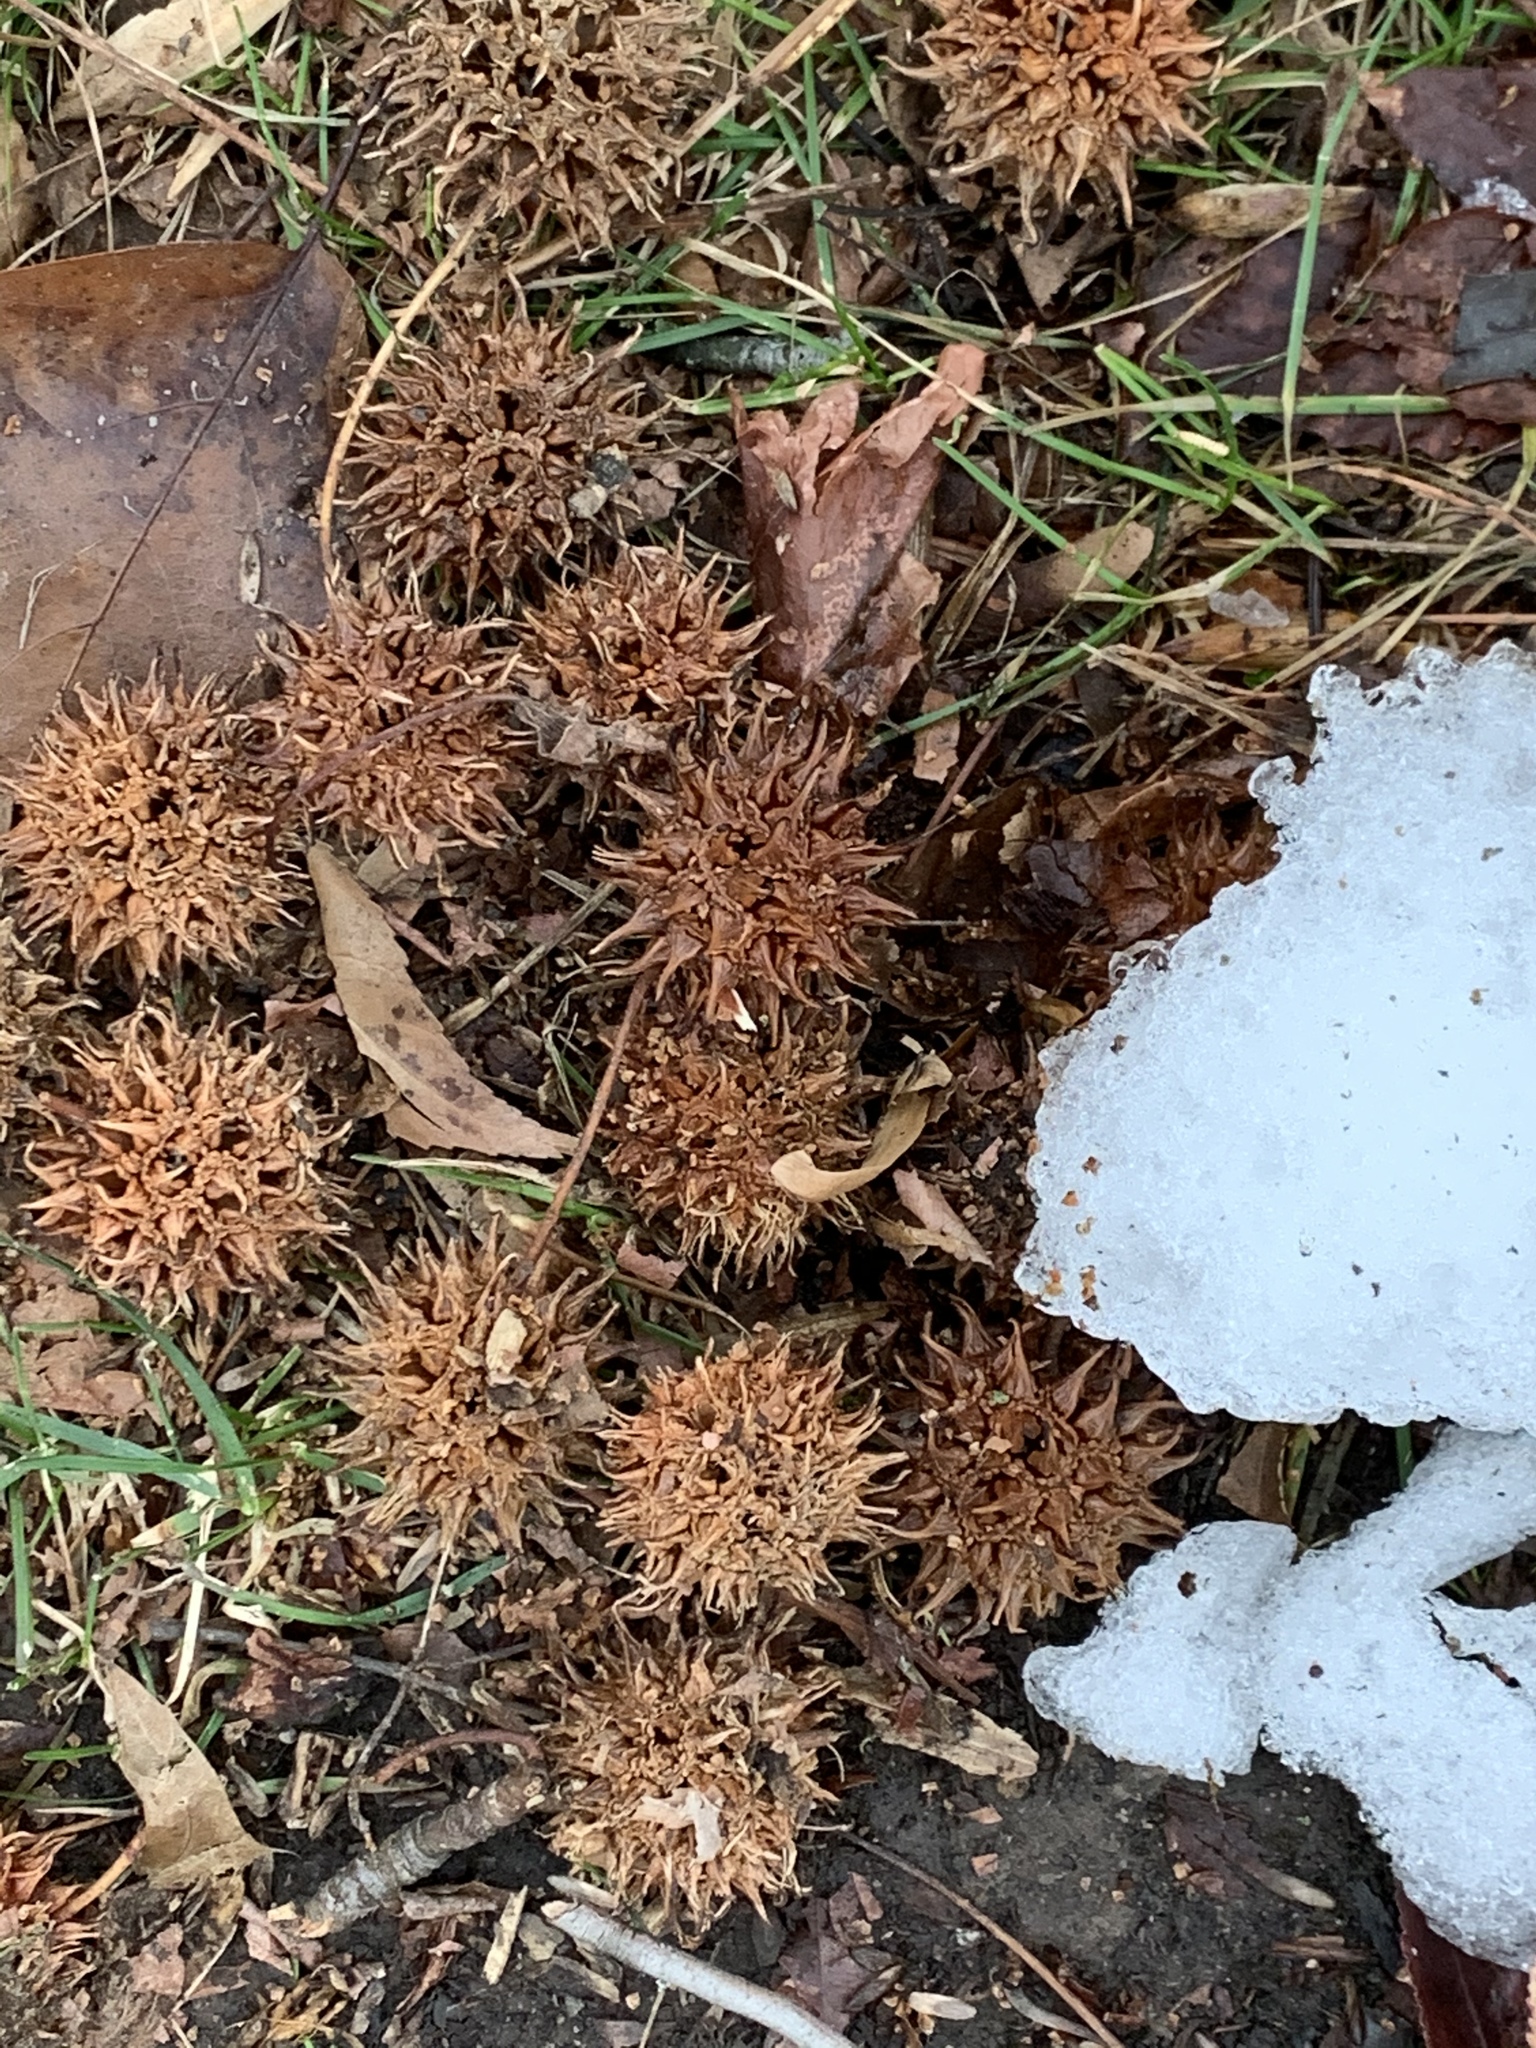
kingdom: Plantae
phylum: Tracheophyta
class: Magnoliopsida
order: Saxifragales
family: Altingiaceae
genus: Liquidambar
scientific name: Liquidambar styraciflua
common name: Sweet gum
